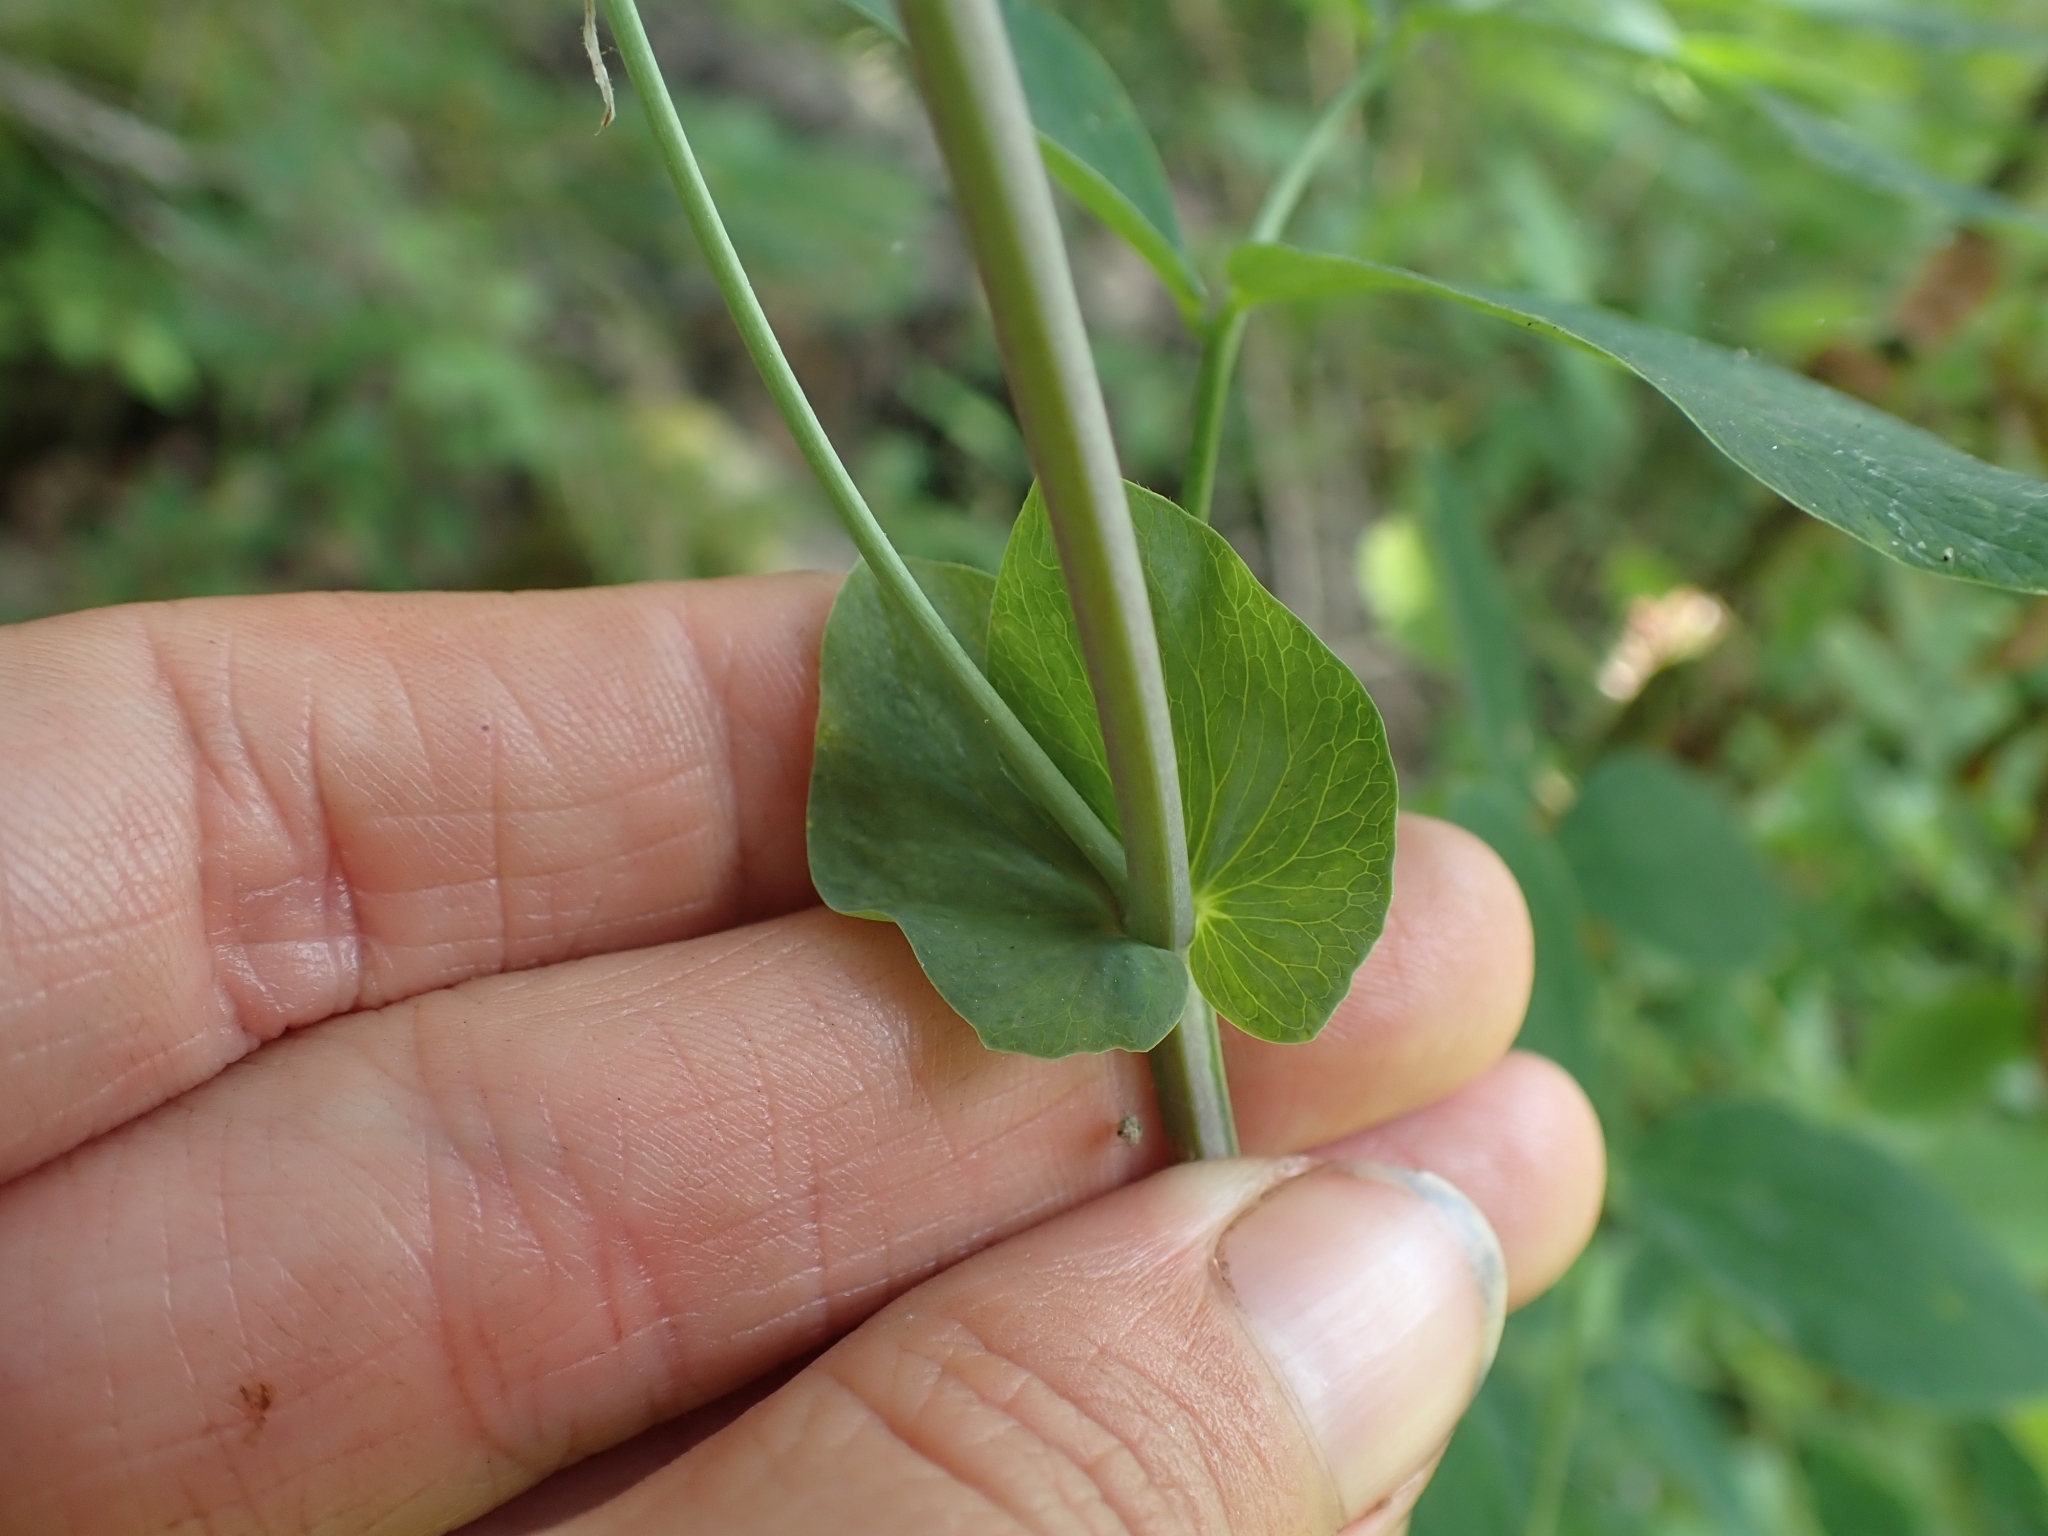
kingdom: Plantae
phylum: Tracheophyta
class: Magnoliopsida
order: Fabales
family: Fabaceae
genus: Lathyrus
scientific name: Lathyrus ochroleucus
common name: Pale vetchling
